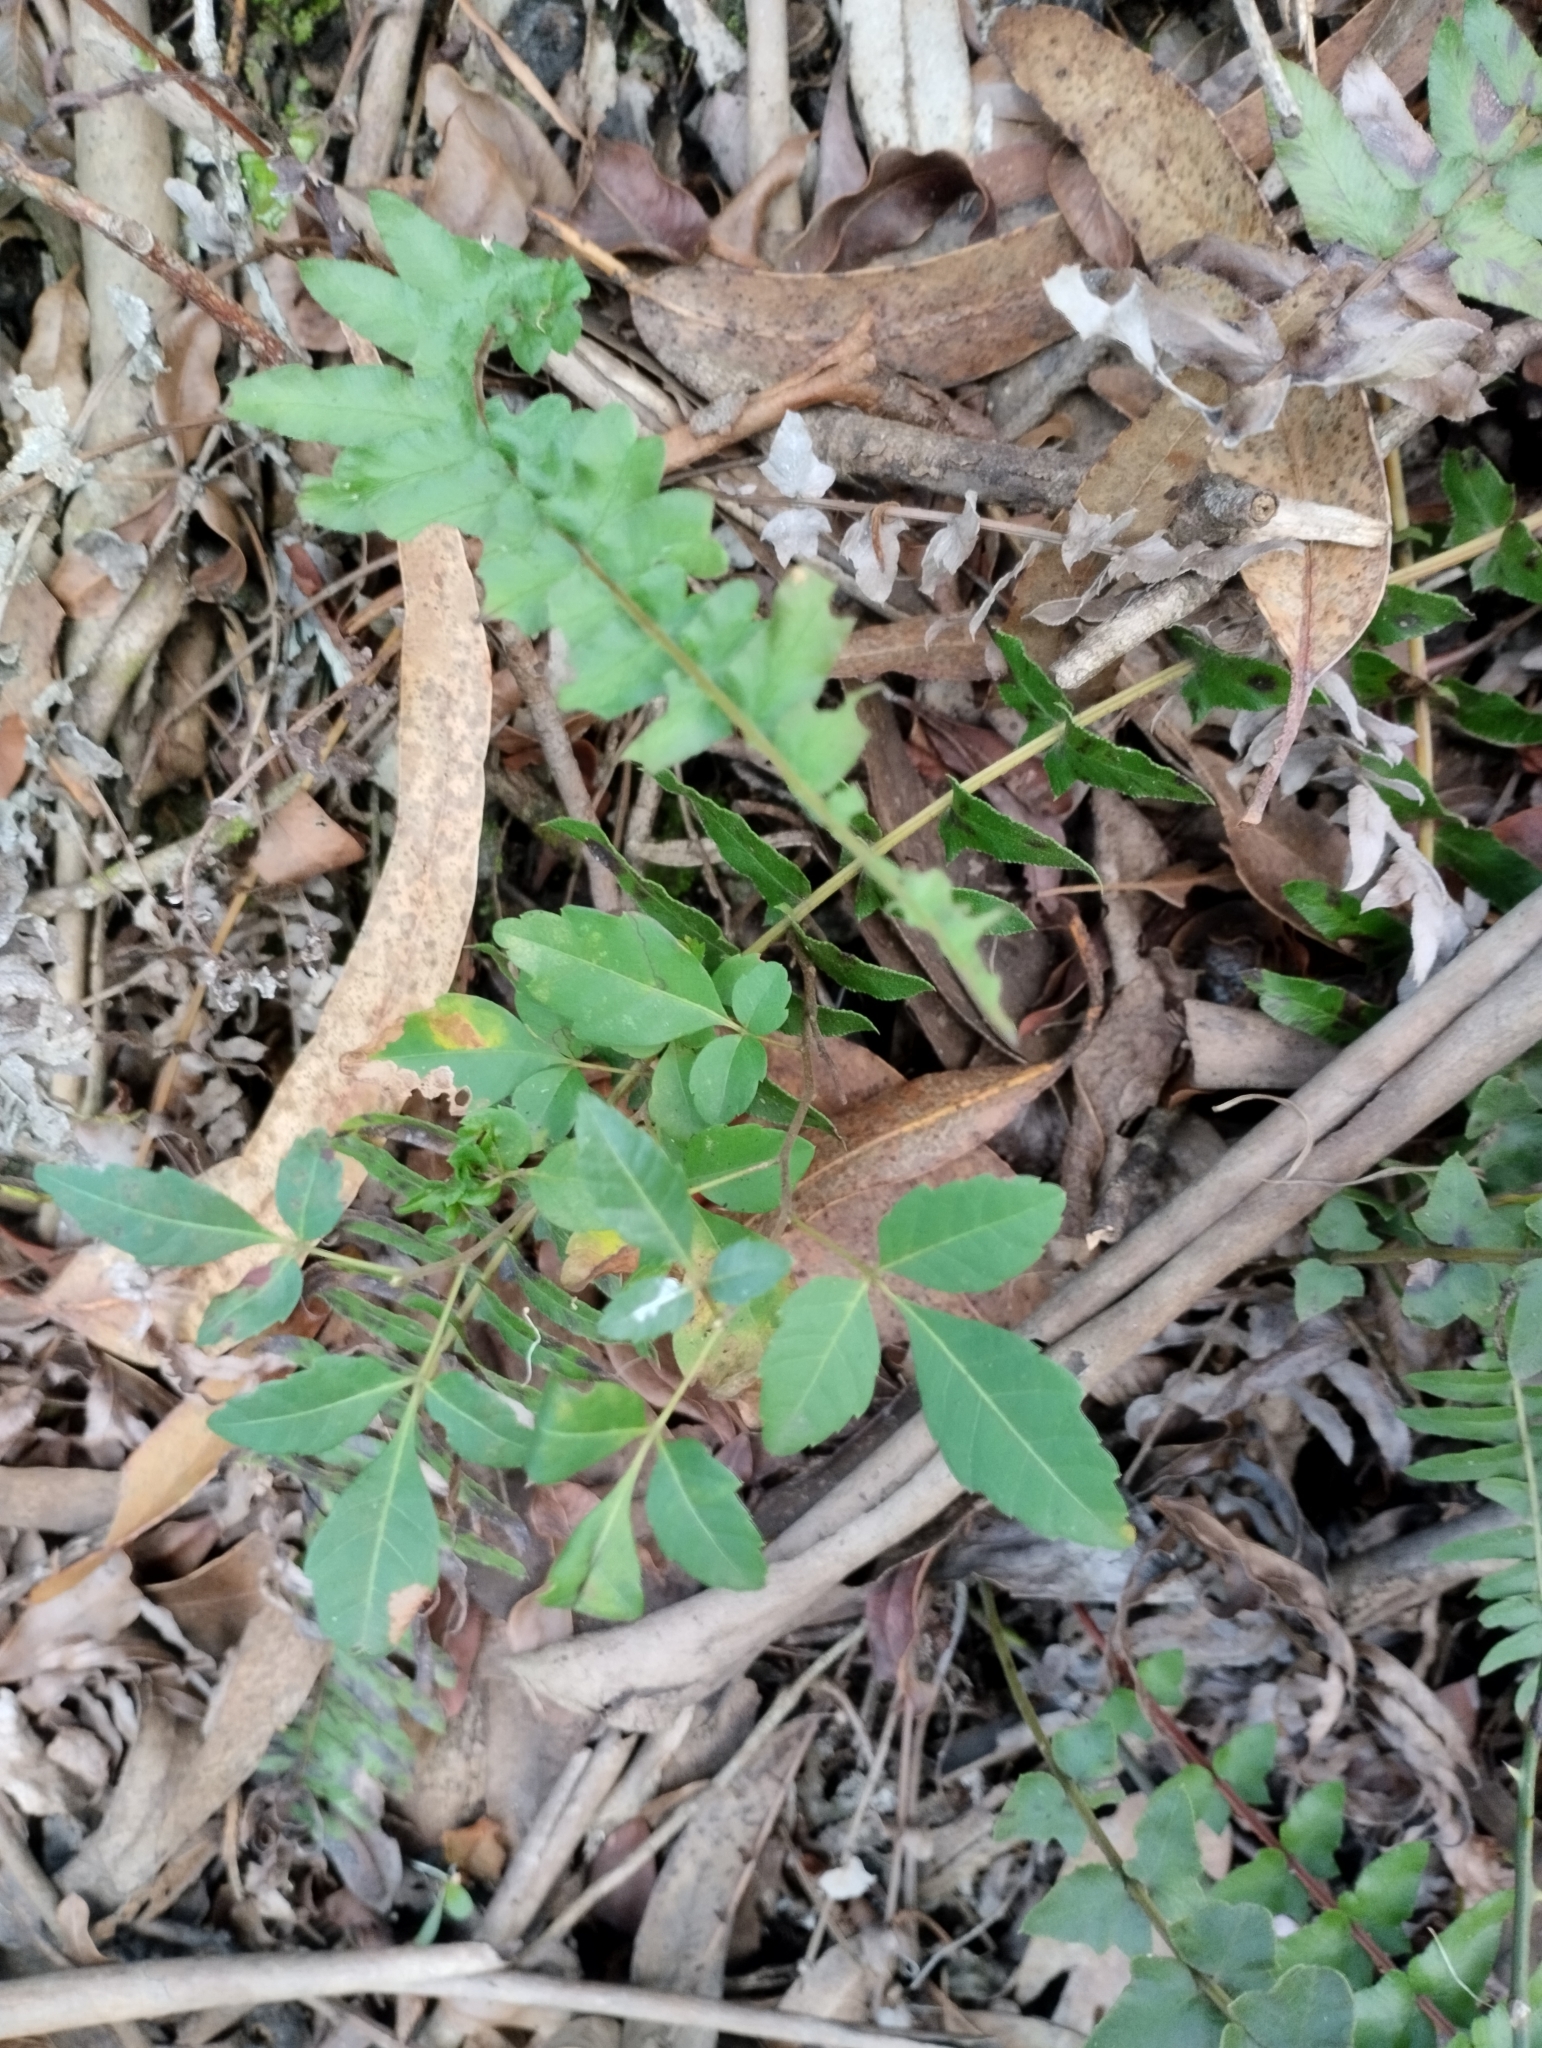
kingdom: Plantae
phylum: Tracheophyta
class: Magnoliopsida
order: Sapindales
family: Sapindaceae
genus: Allophylus
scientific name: Allophylus edulis
